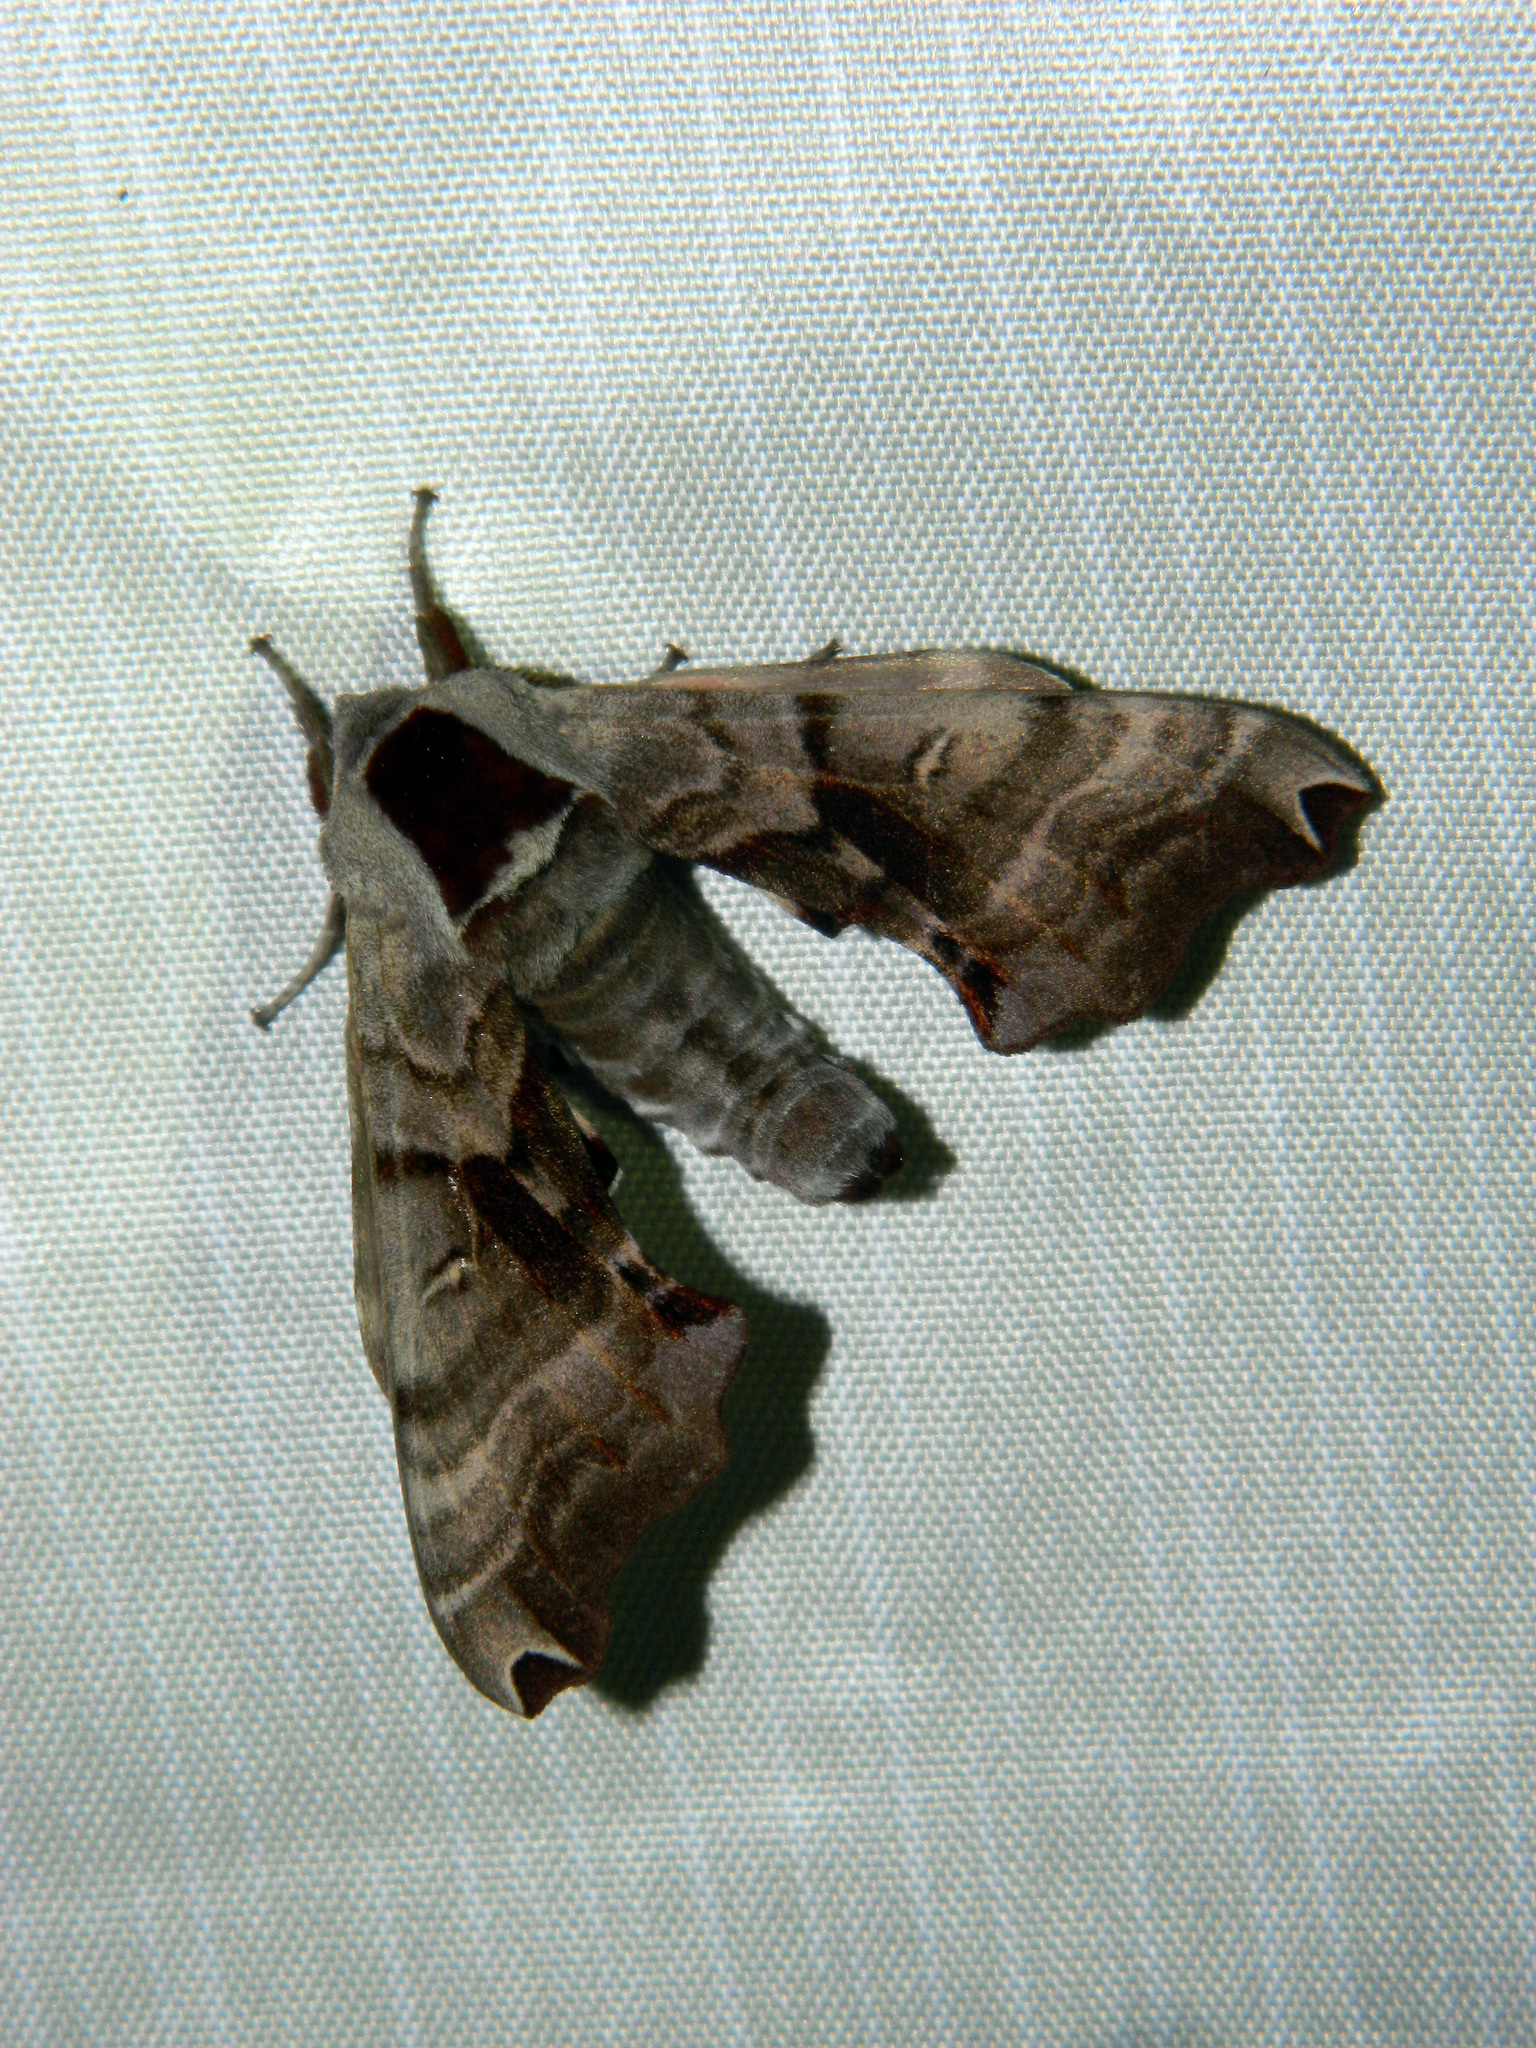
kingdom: Animalia
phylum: Arthropoda
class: Insecta
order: Lepidoptera
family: Sphingidae
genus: Smerinthus
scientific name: Smerinthus jamaicensis
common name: Twin spotted sphinx
